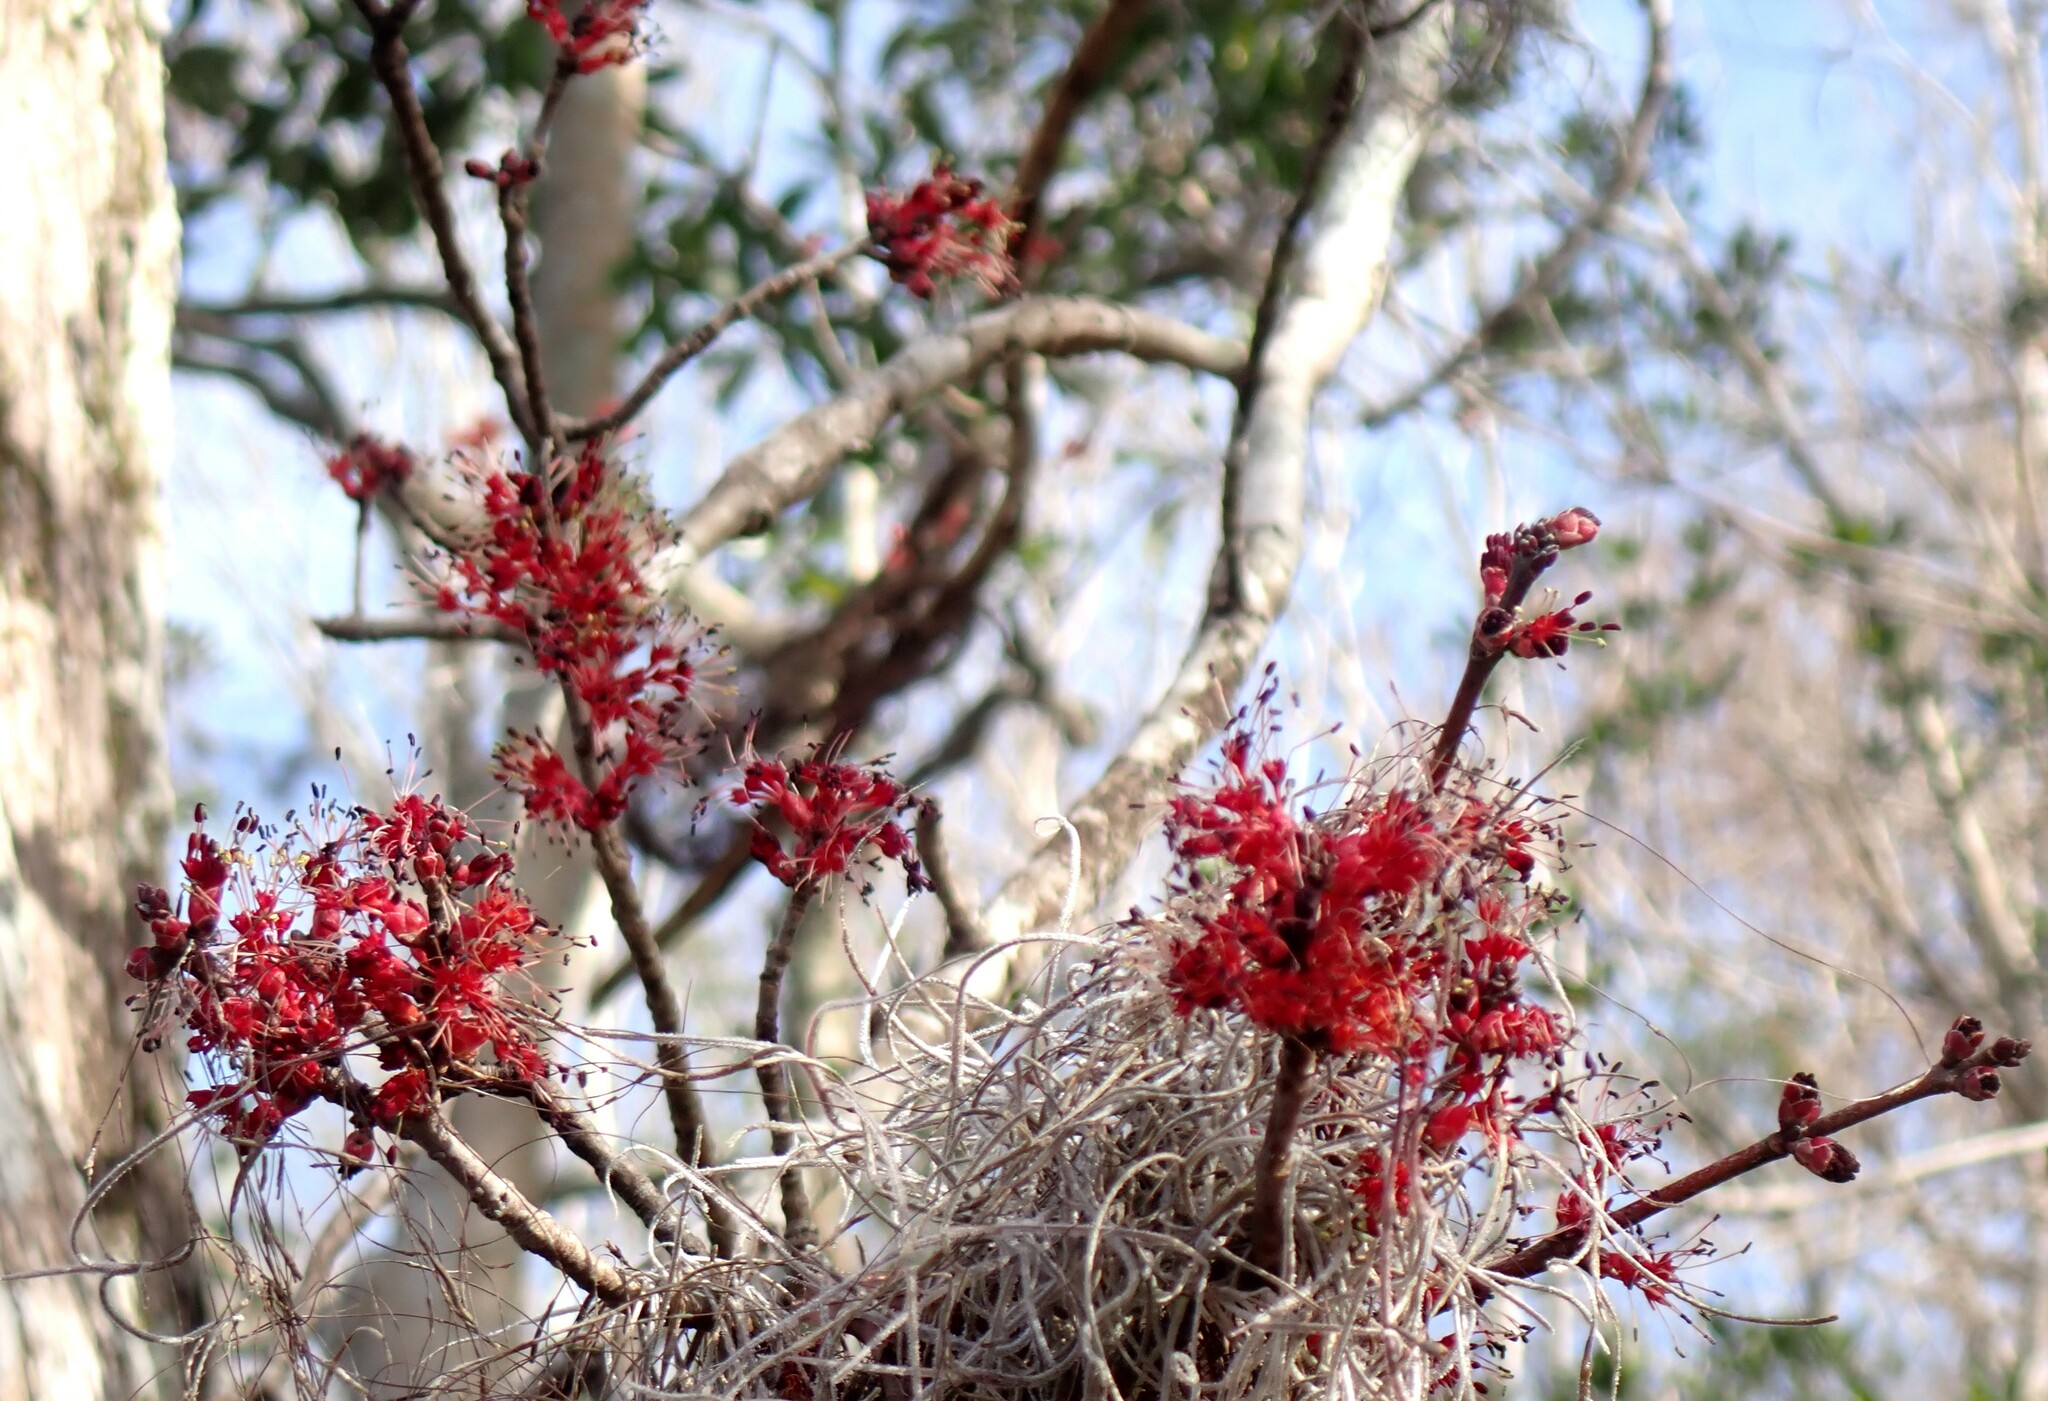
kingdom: Plantae
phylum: Tracheophyta
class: Magnoliopsida
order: Sapindales
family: Sapindaceae
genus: Acer
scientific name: Acer rubrum
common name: Red maple
